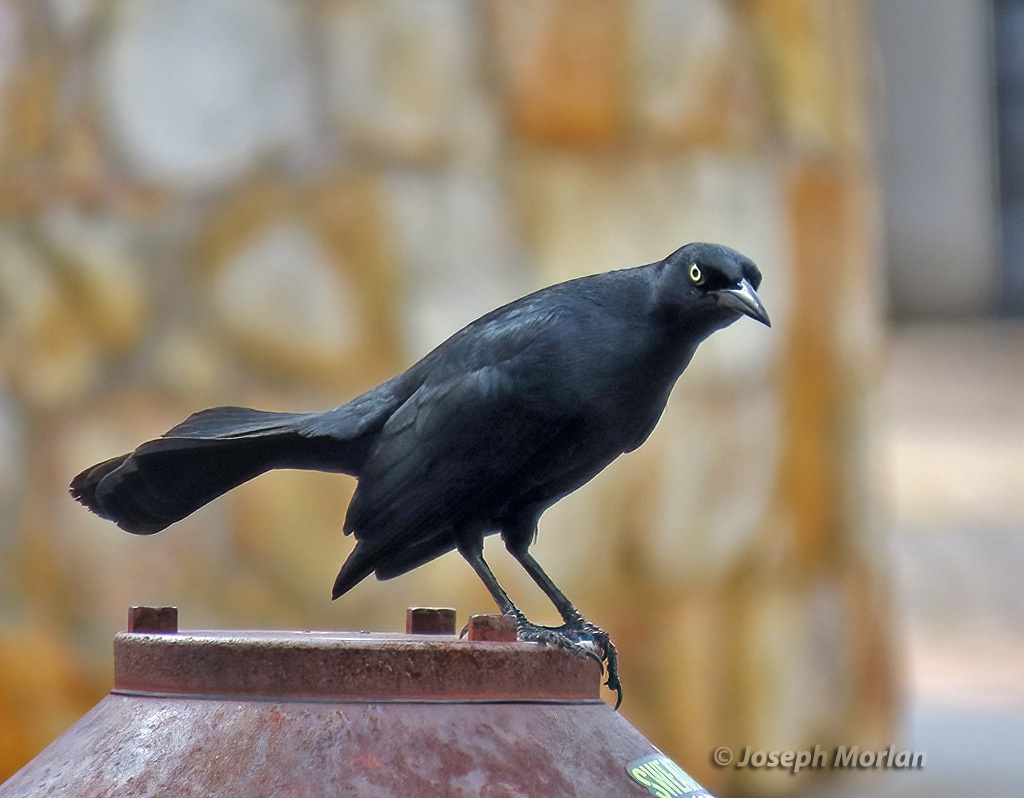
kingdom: Animalia
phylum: Chordata
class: Aves
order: Passeriformes
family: Icteridae
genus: Quiscalus
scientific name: Quiscalus niger
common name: Greater antillean grackle
